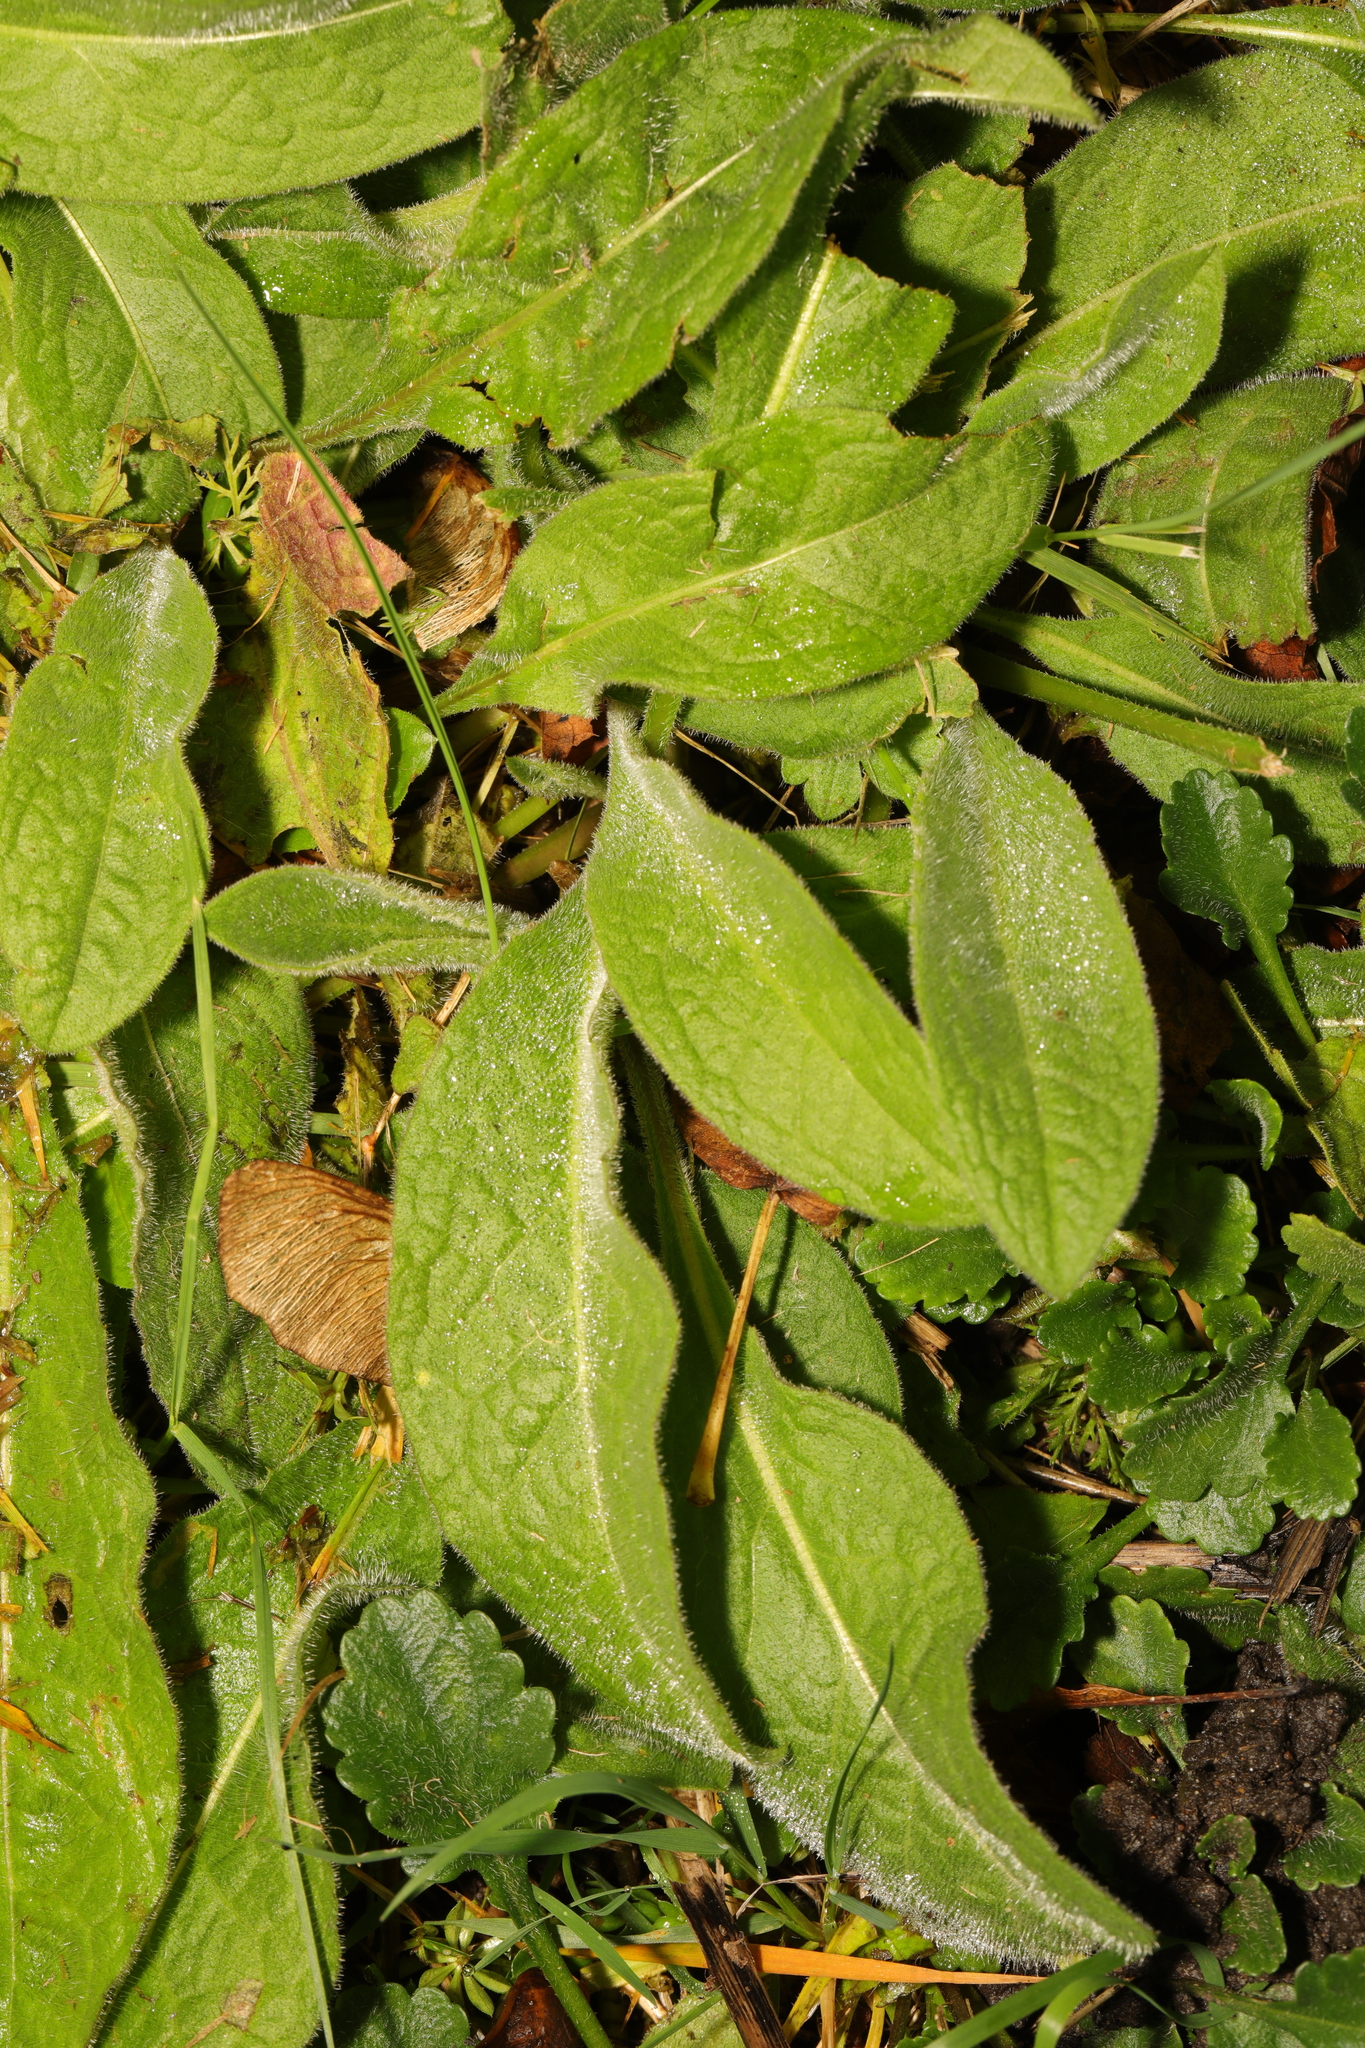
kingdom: Plantae
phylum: Tracheophyta
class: Magnoliopsida
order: Asterales
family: Asteraceae
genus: Centaurea
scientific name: Centaurea nigra
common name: Lesser knapweed
